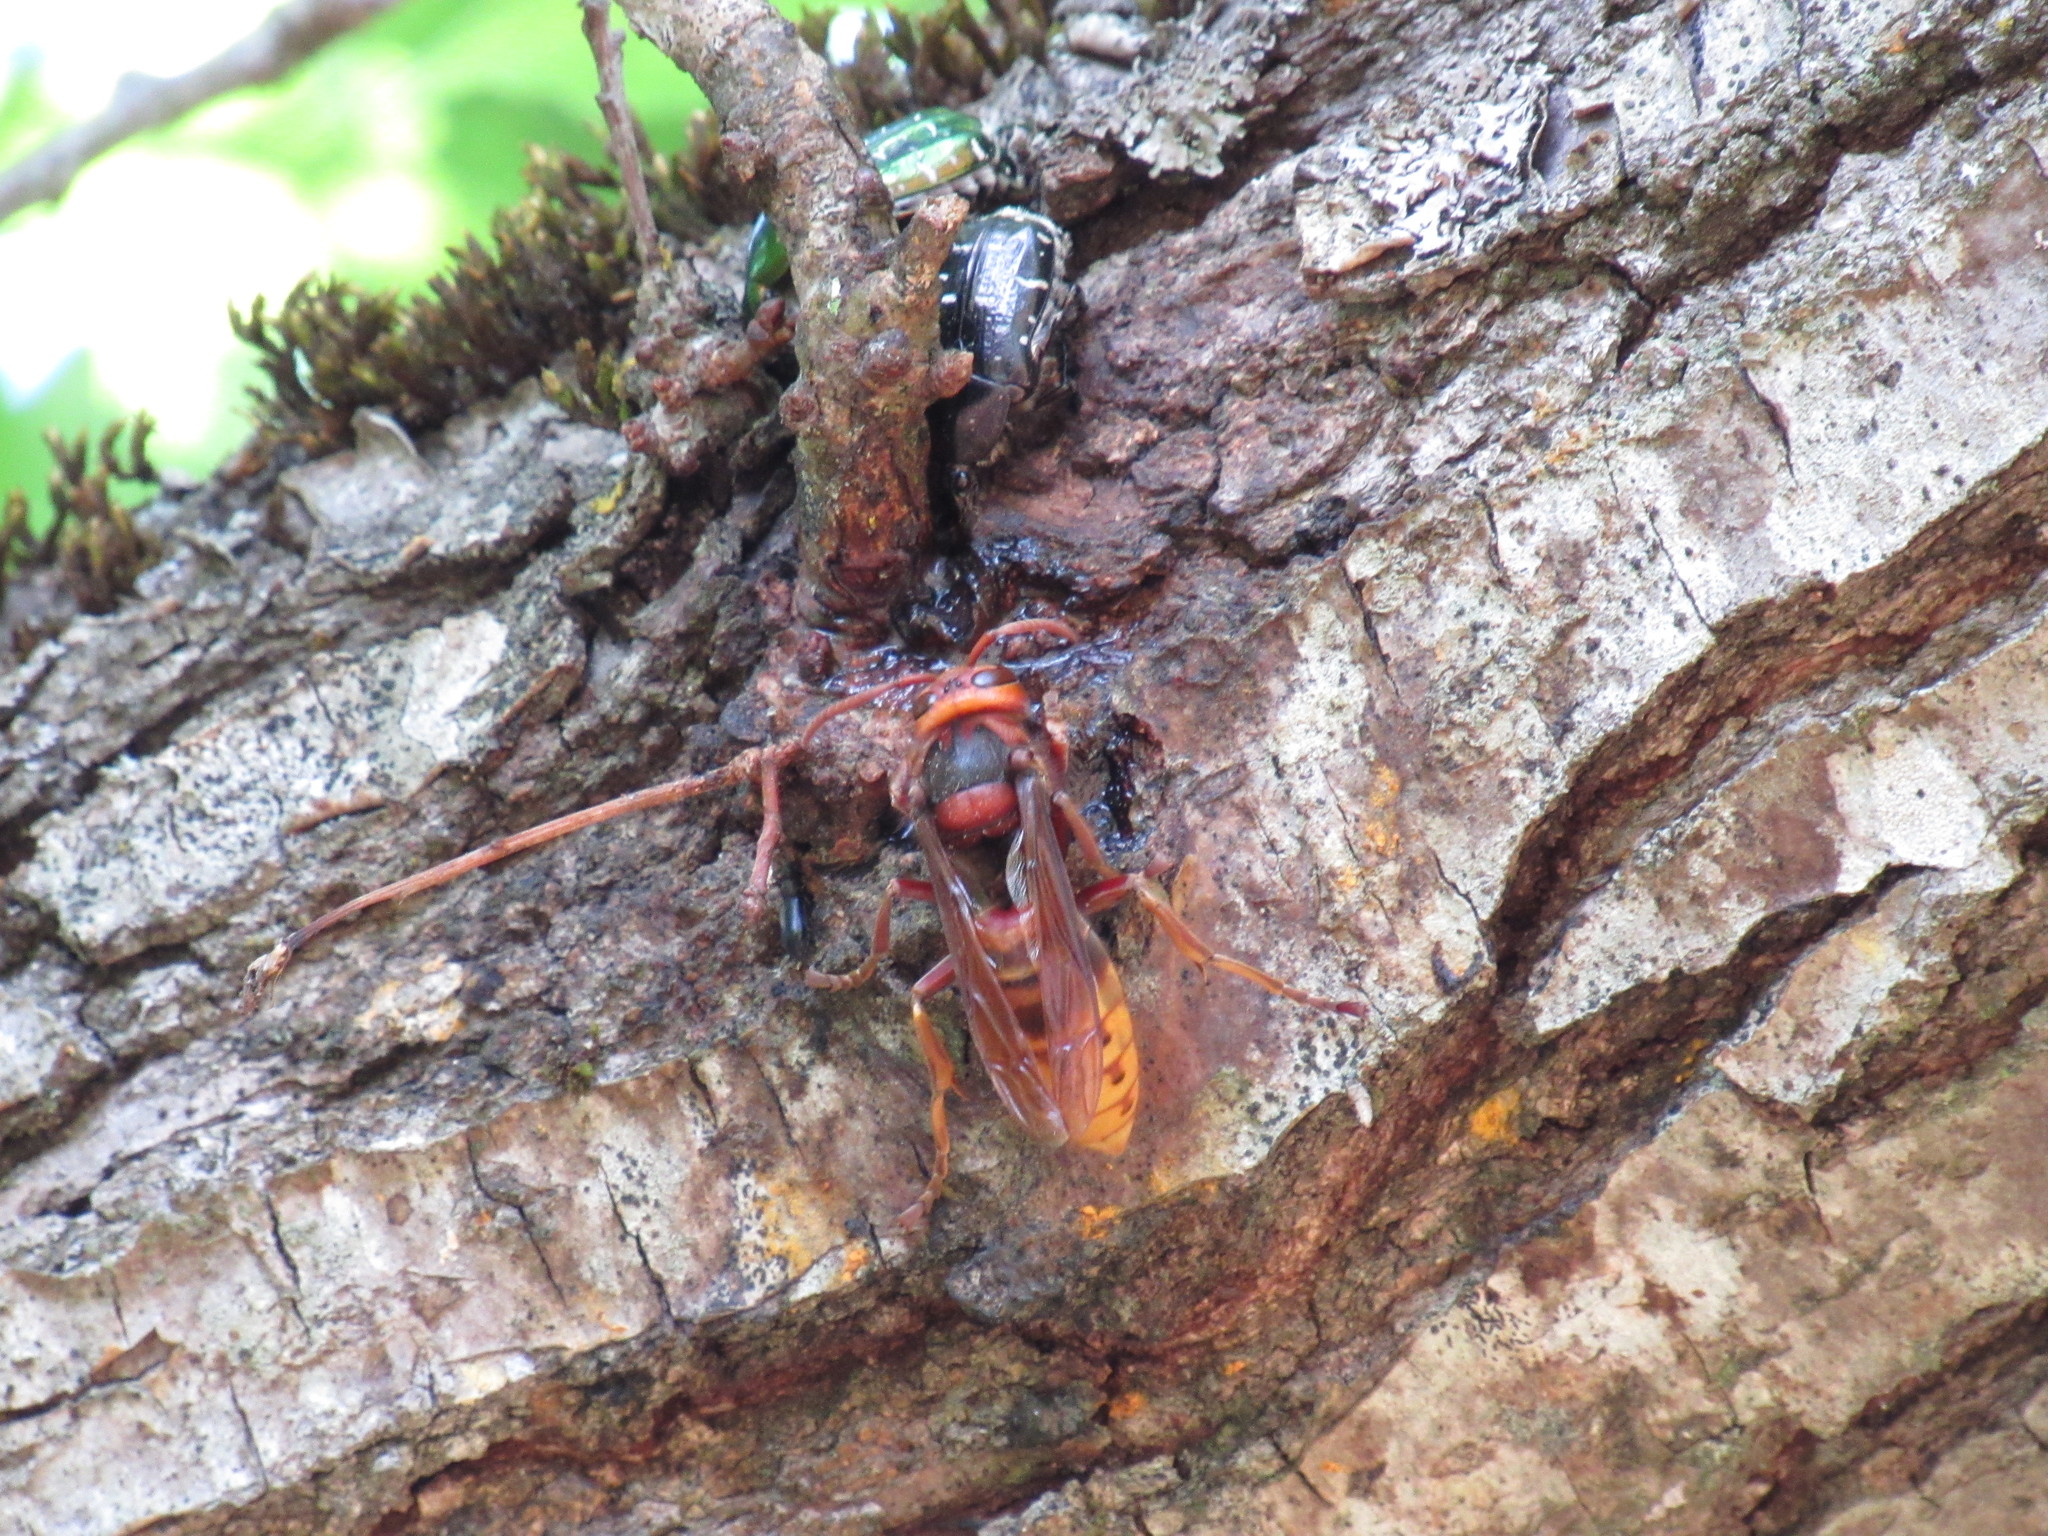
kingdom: Animalia
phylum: Arthropoda
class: Insecta
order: Hymenoptera
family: Vespidae
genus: Vespa
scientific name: Vespa crabro
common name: Hornet
